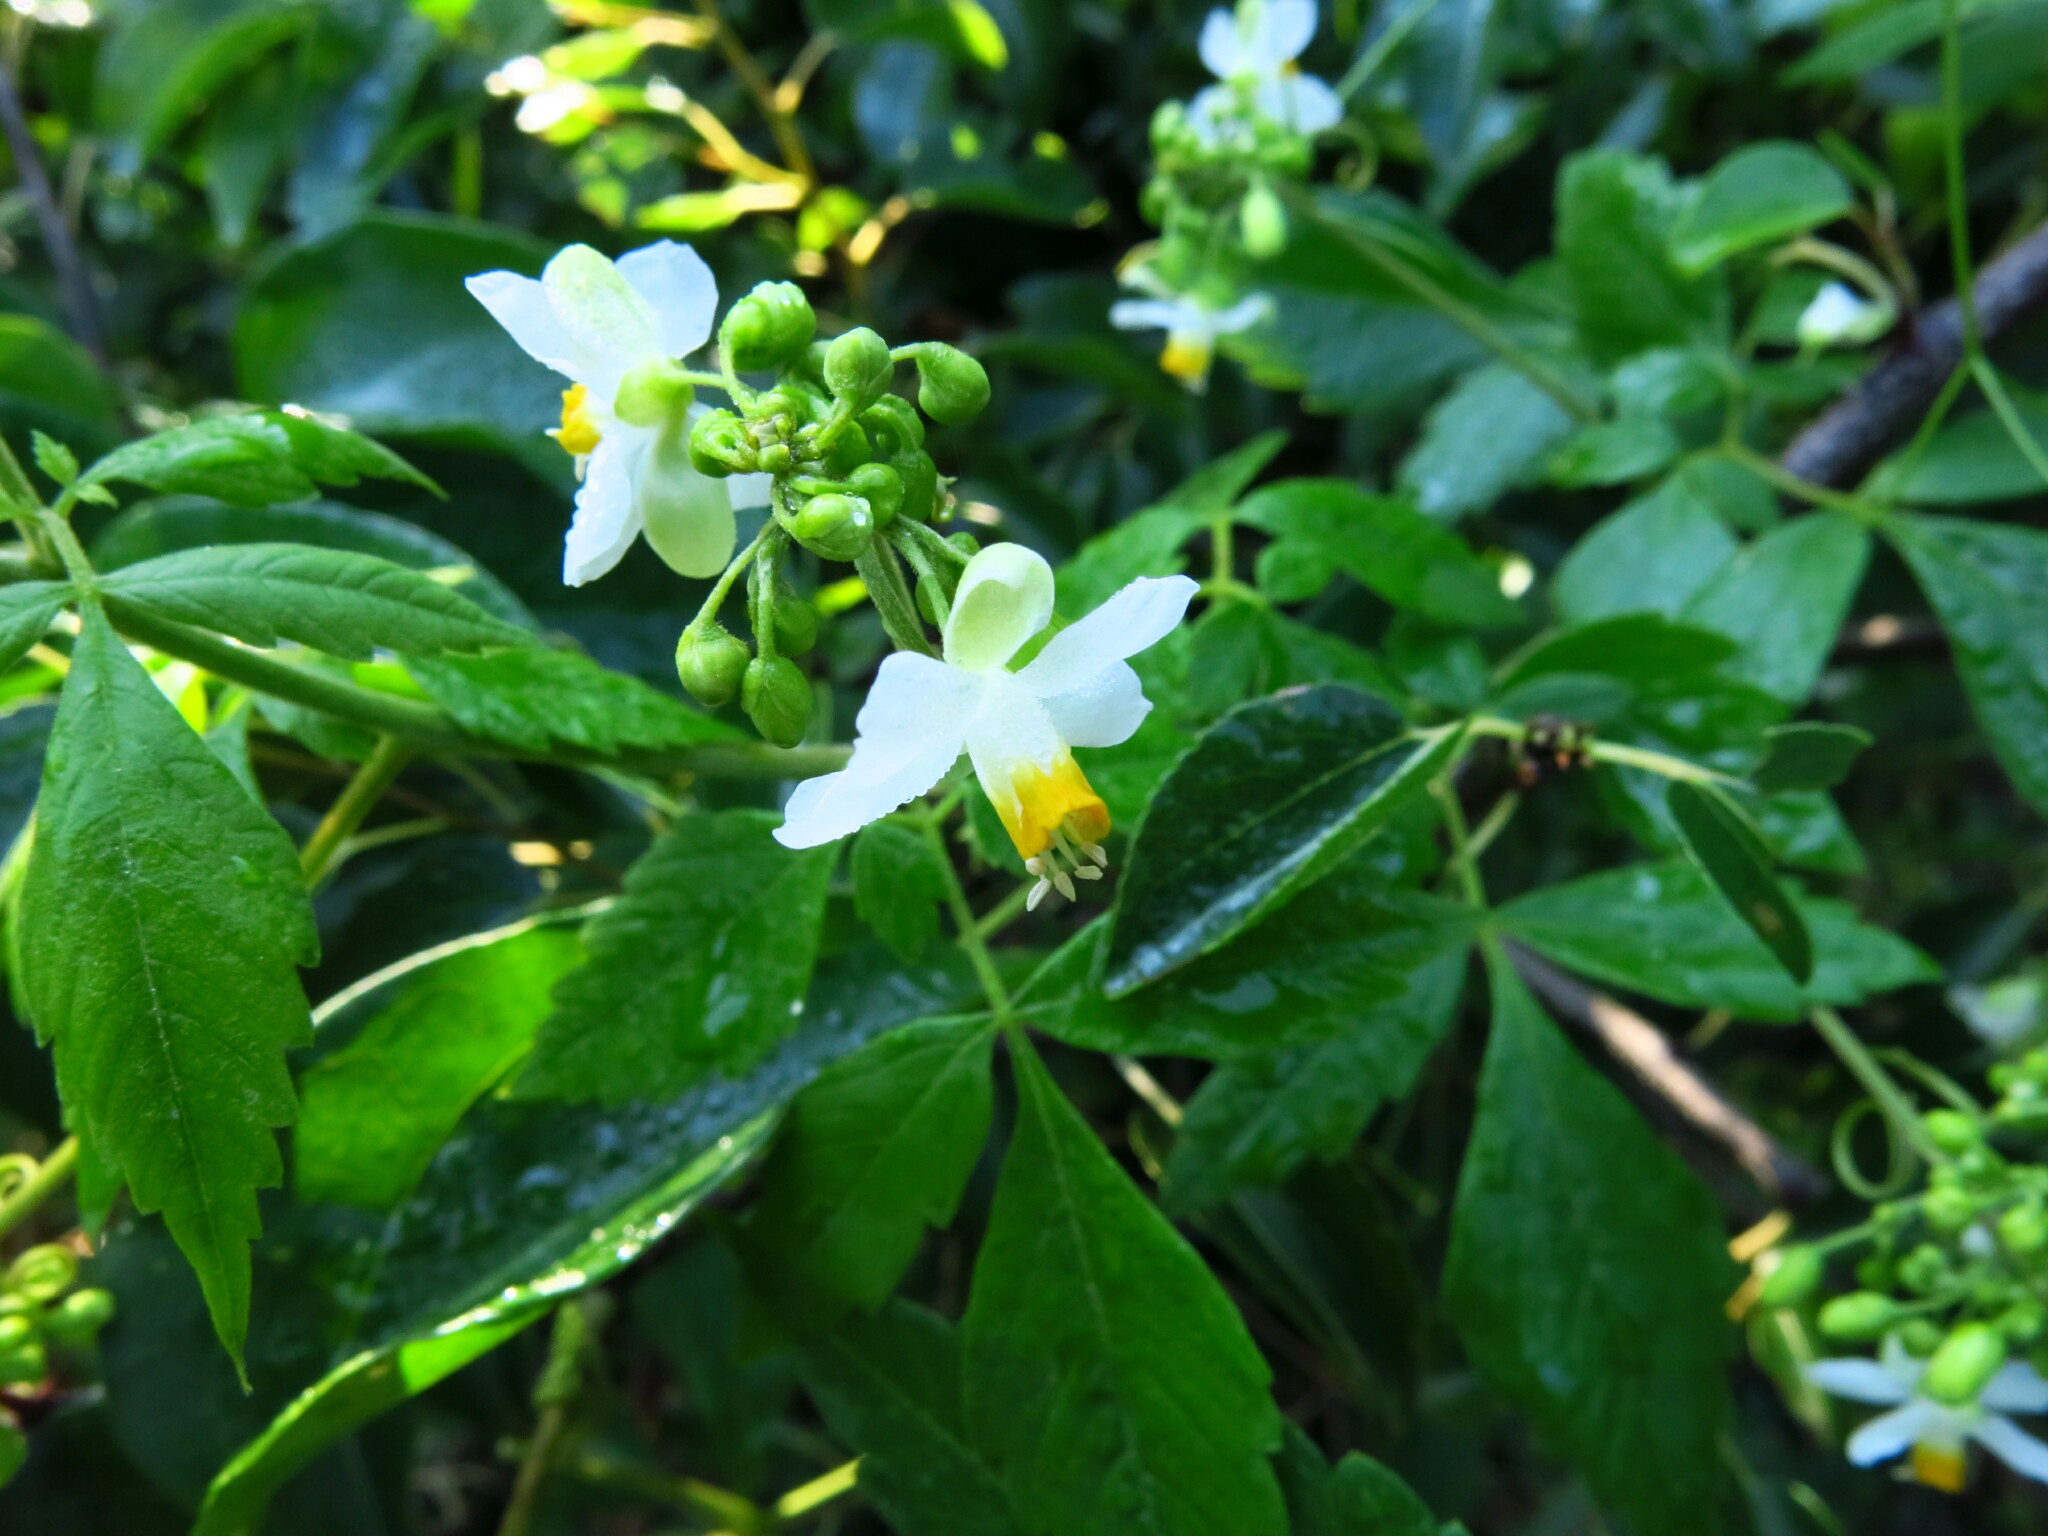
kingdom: Plantae
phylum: Tracheophyta
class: Magnoliopsida
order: Sapindales
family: Sapindaceae
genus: Cardiospermum
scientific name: Cardiospermum grandiflorum
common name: Balloon vine
